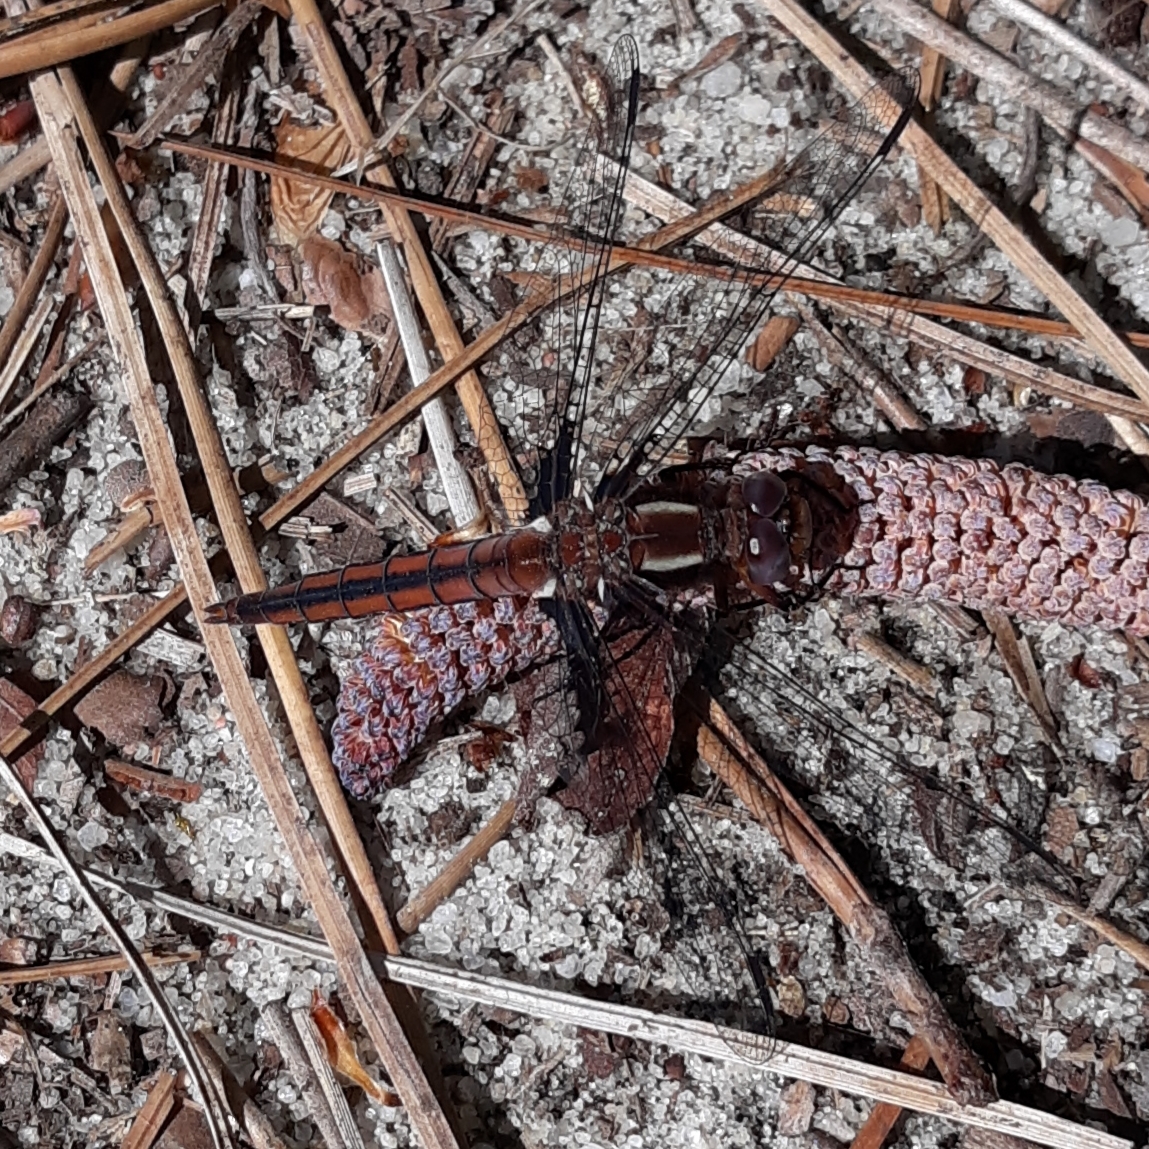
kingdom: Animalia
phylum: Arthropoda
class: Insecta
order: Odonata
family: Libellulidae
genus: Ladona
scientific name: Ladona deplanata
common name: Blue corporal
